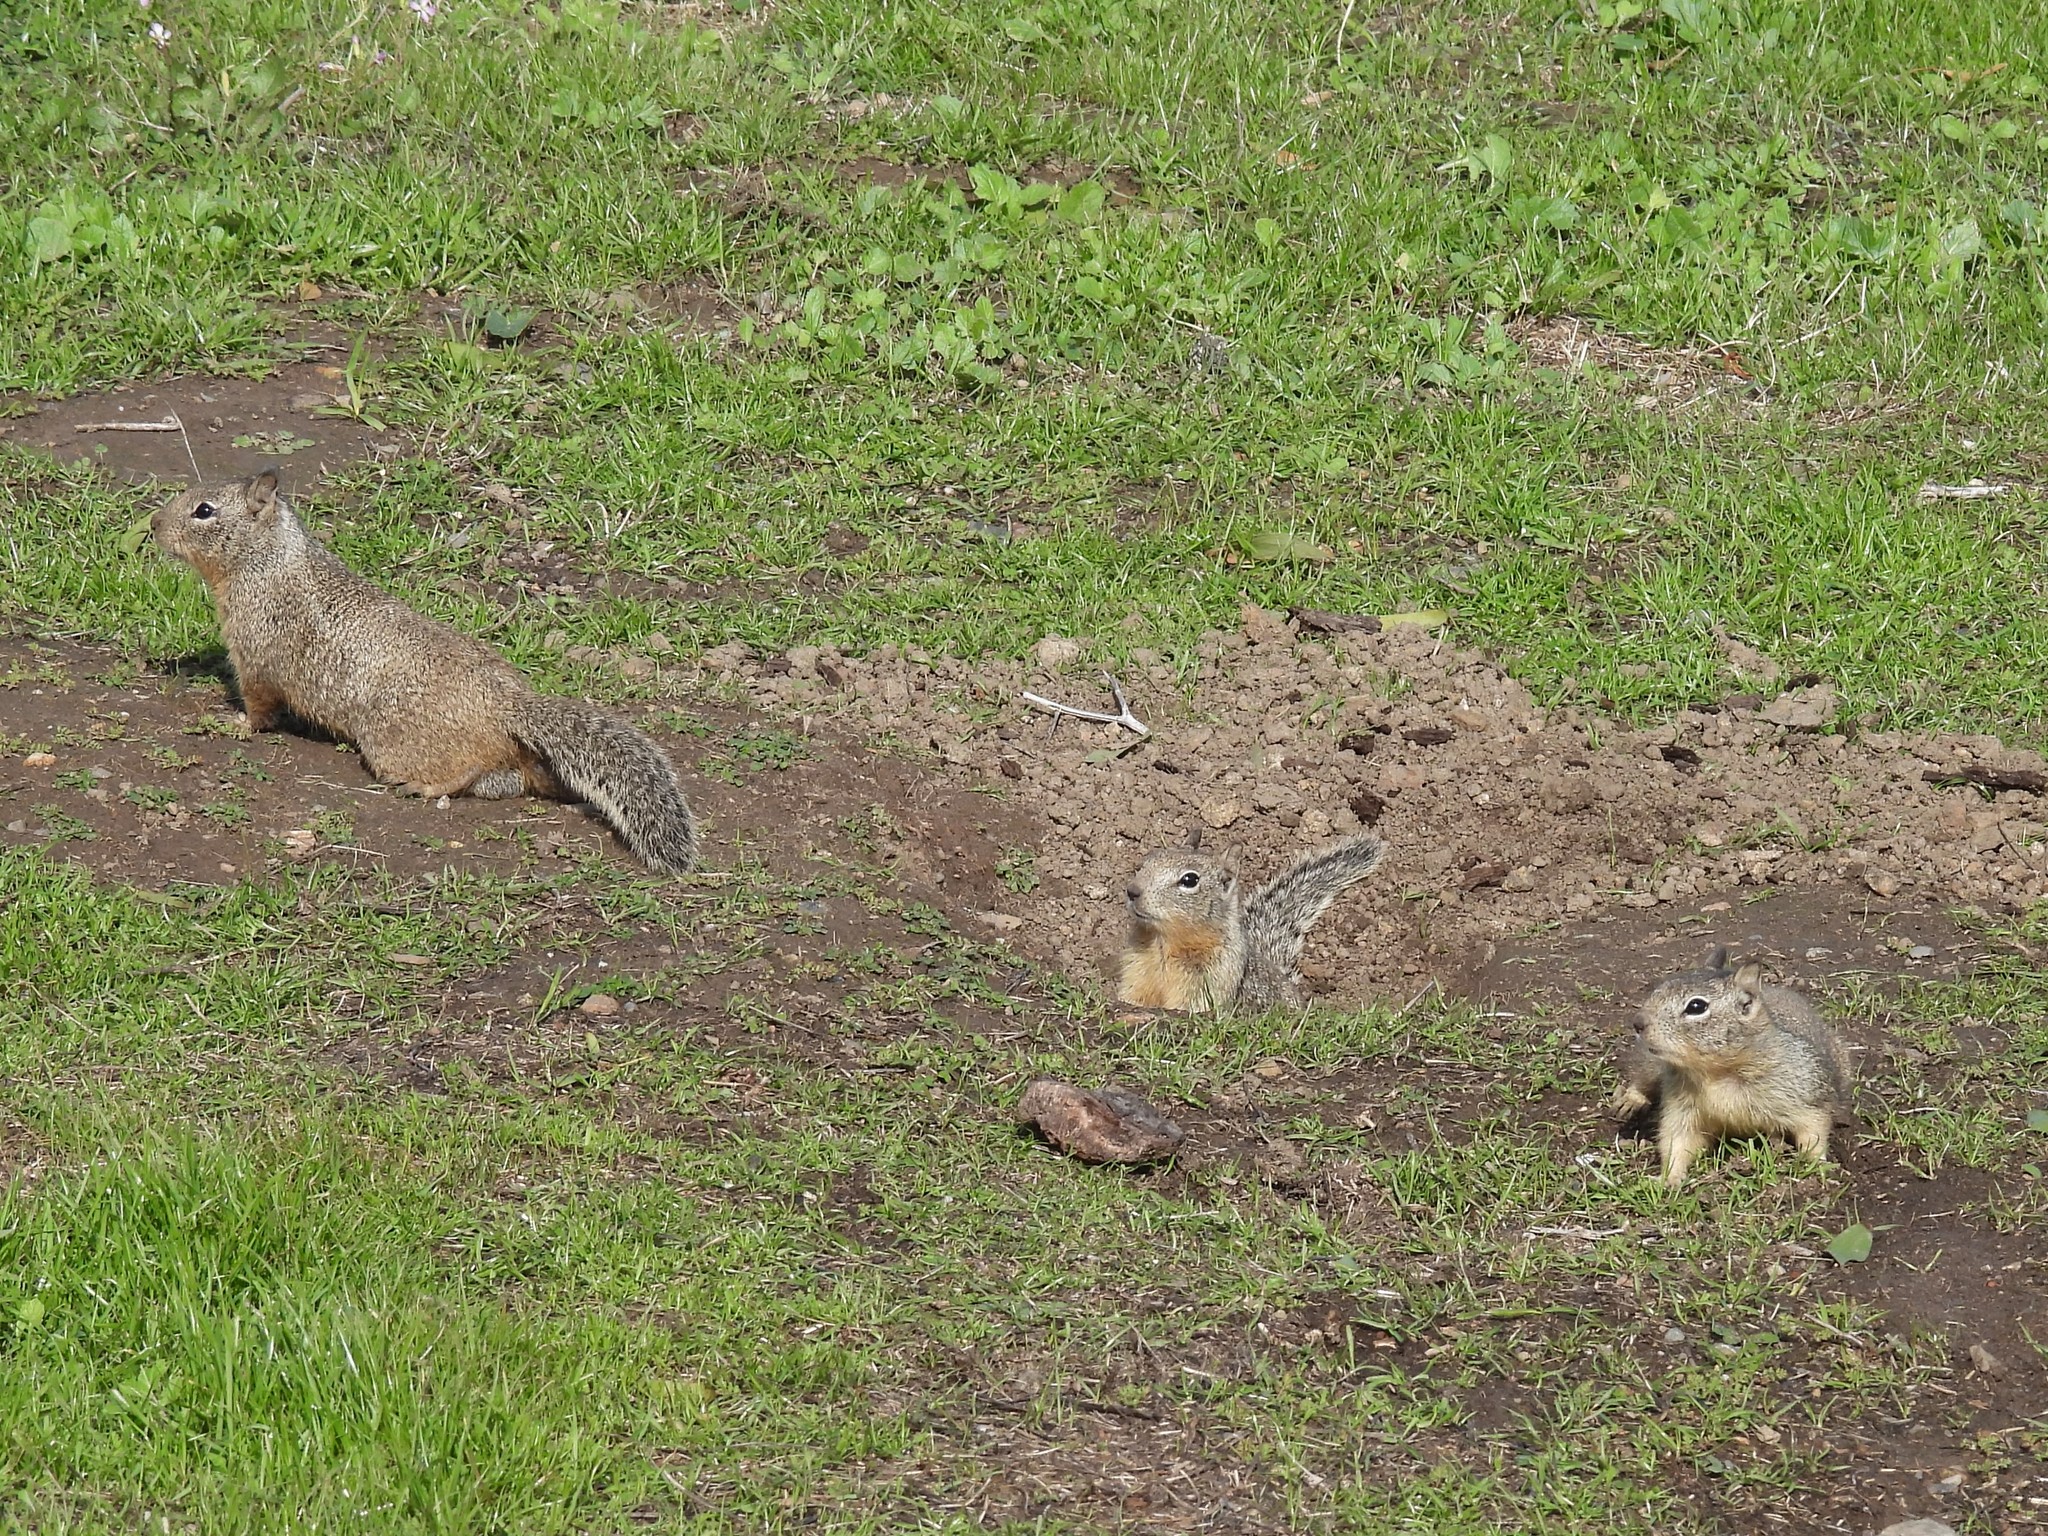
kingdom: Animalia
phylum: Chordata
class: Mammalia
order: Rodentia
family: Sciuridae
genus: Otospermophilus
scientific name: Otospermophilus beecheyi
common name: California ground squirrel
